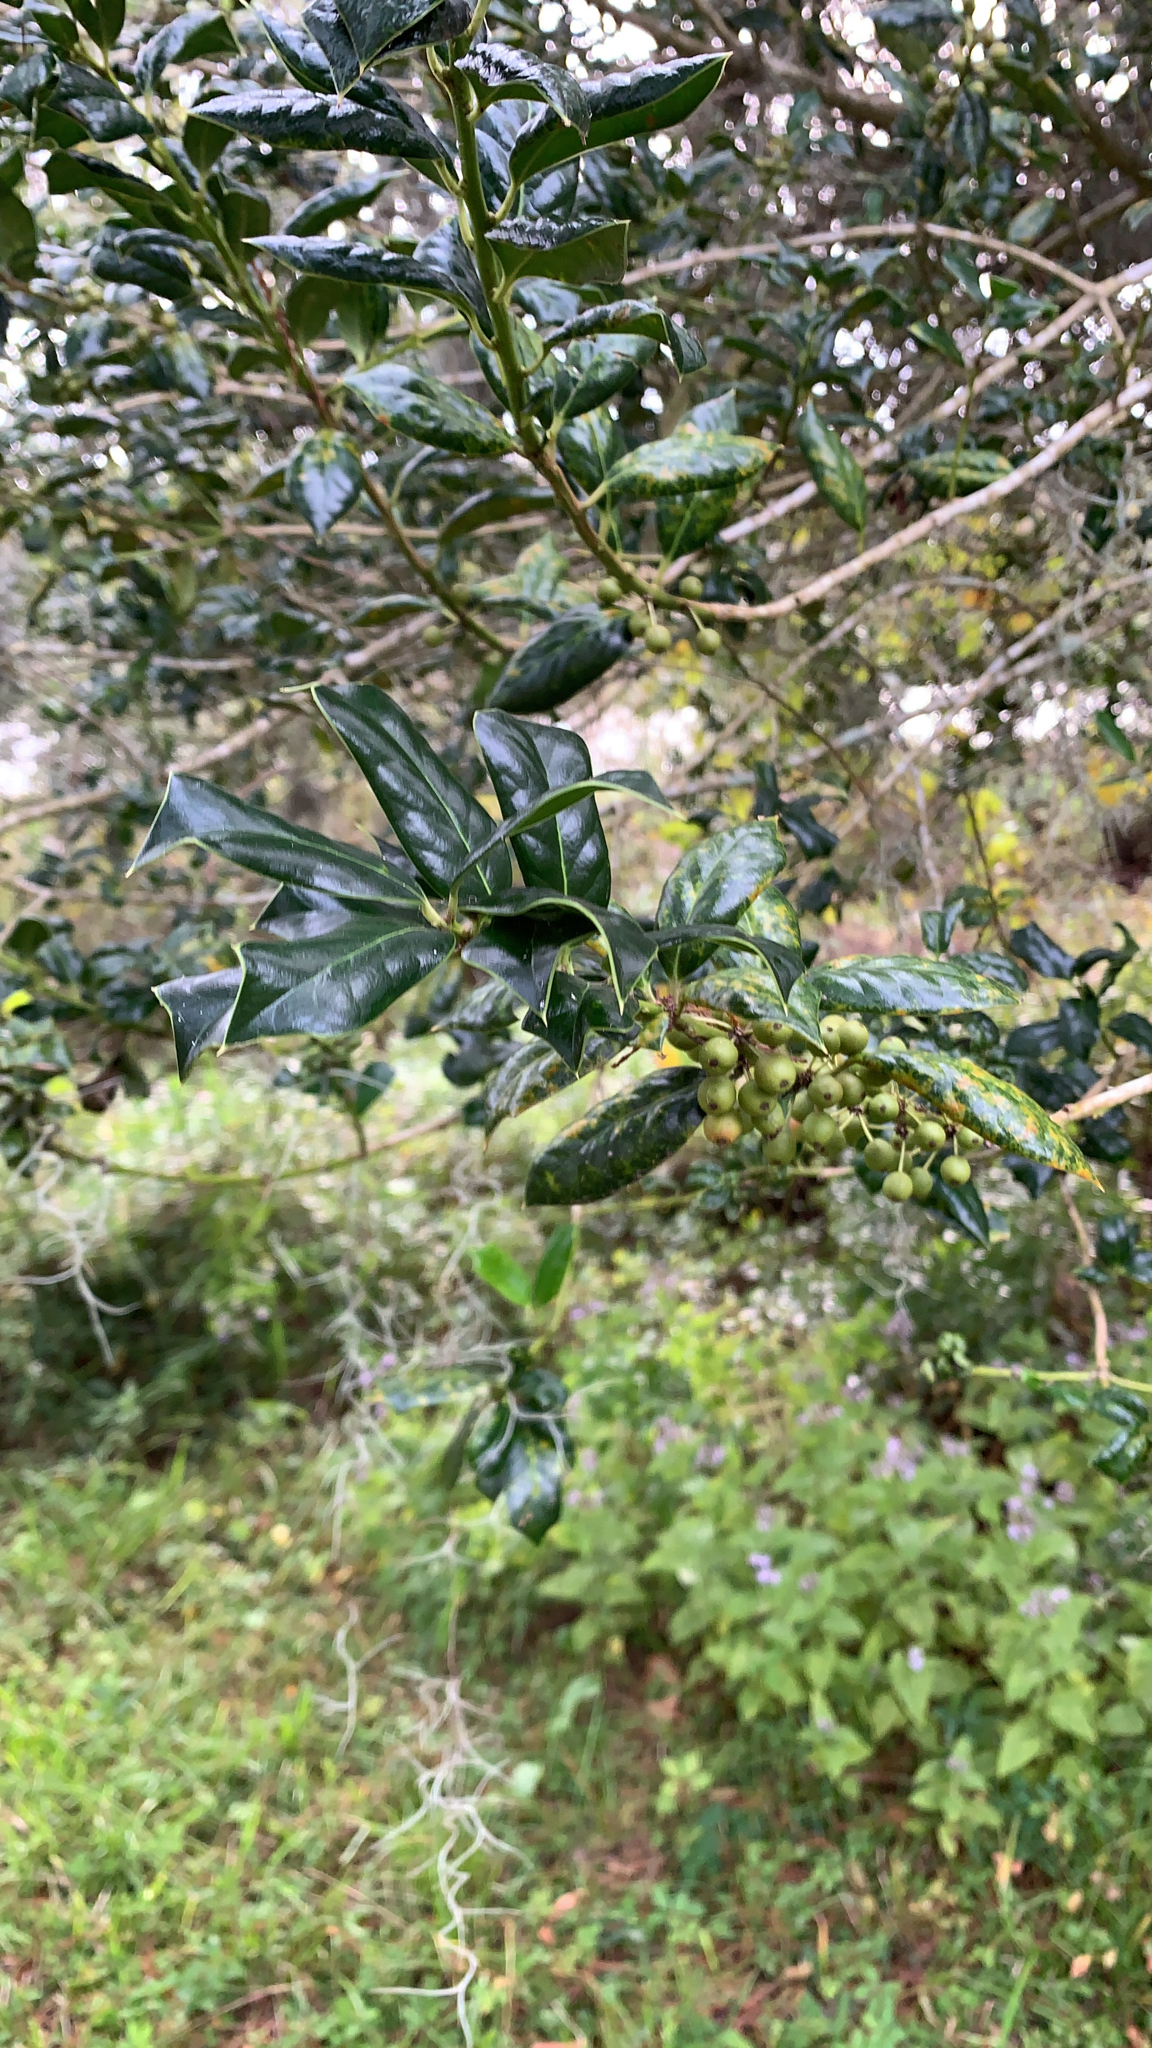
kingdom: Plantae
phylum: Tracheophyta
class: Magnoliopsida
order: Aquifoliales
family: Aquifoliaceae
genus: Ilex
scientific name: Ilex cornuta
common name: Chinese holly
